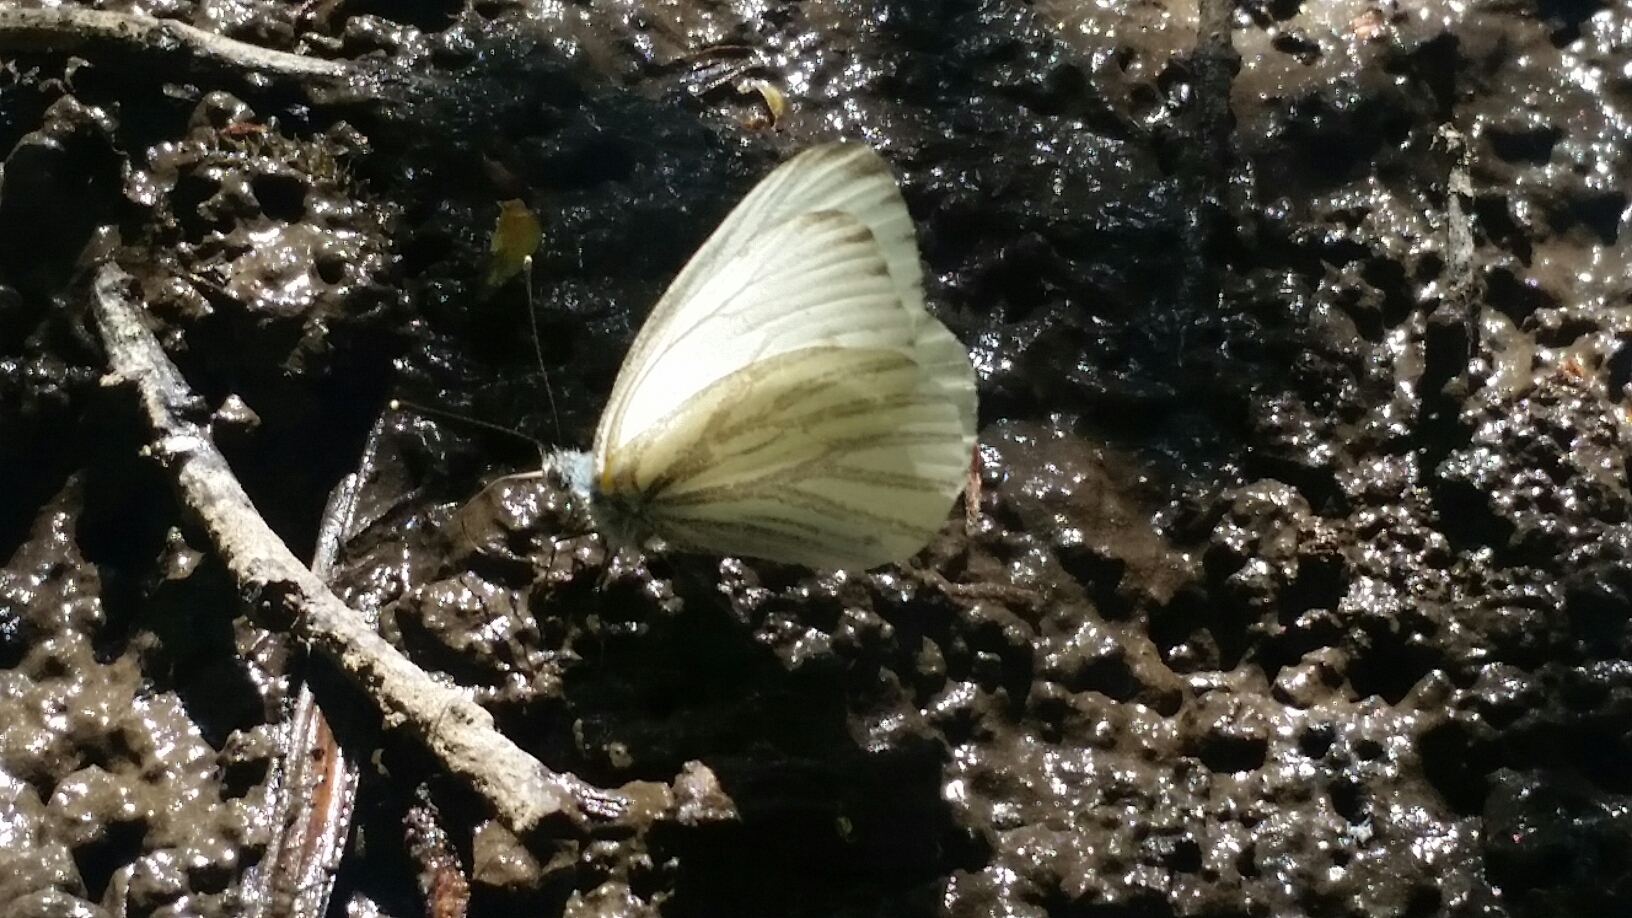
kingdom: Animalia
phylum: Arthropoda
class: Insecta
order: Lepidoptera
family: Pieridae
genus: Pieris
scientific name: Pieris marginalis
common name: Margined white
